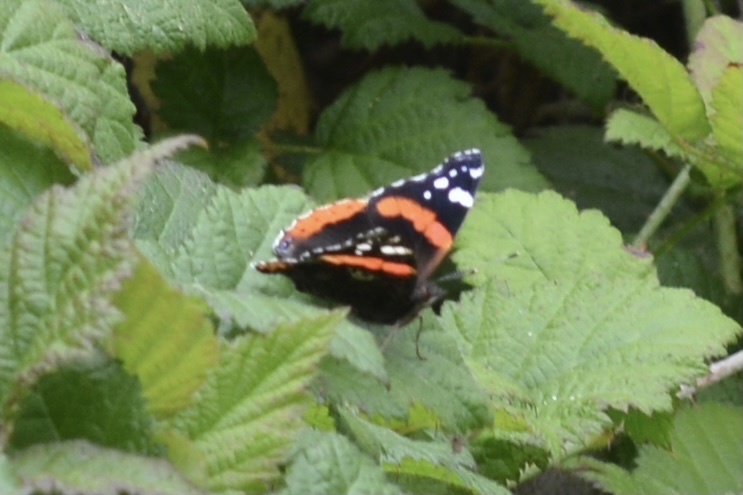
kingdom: Animalia
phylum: Arthropoda
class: Insecta
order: Lepidoptera
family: Nymphalidae
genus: Vanessa
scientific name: Vanessa atalanta
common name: Red admiral
